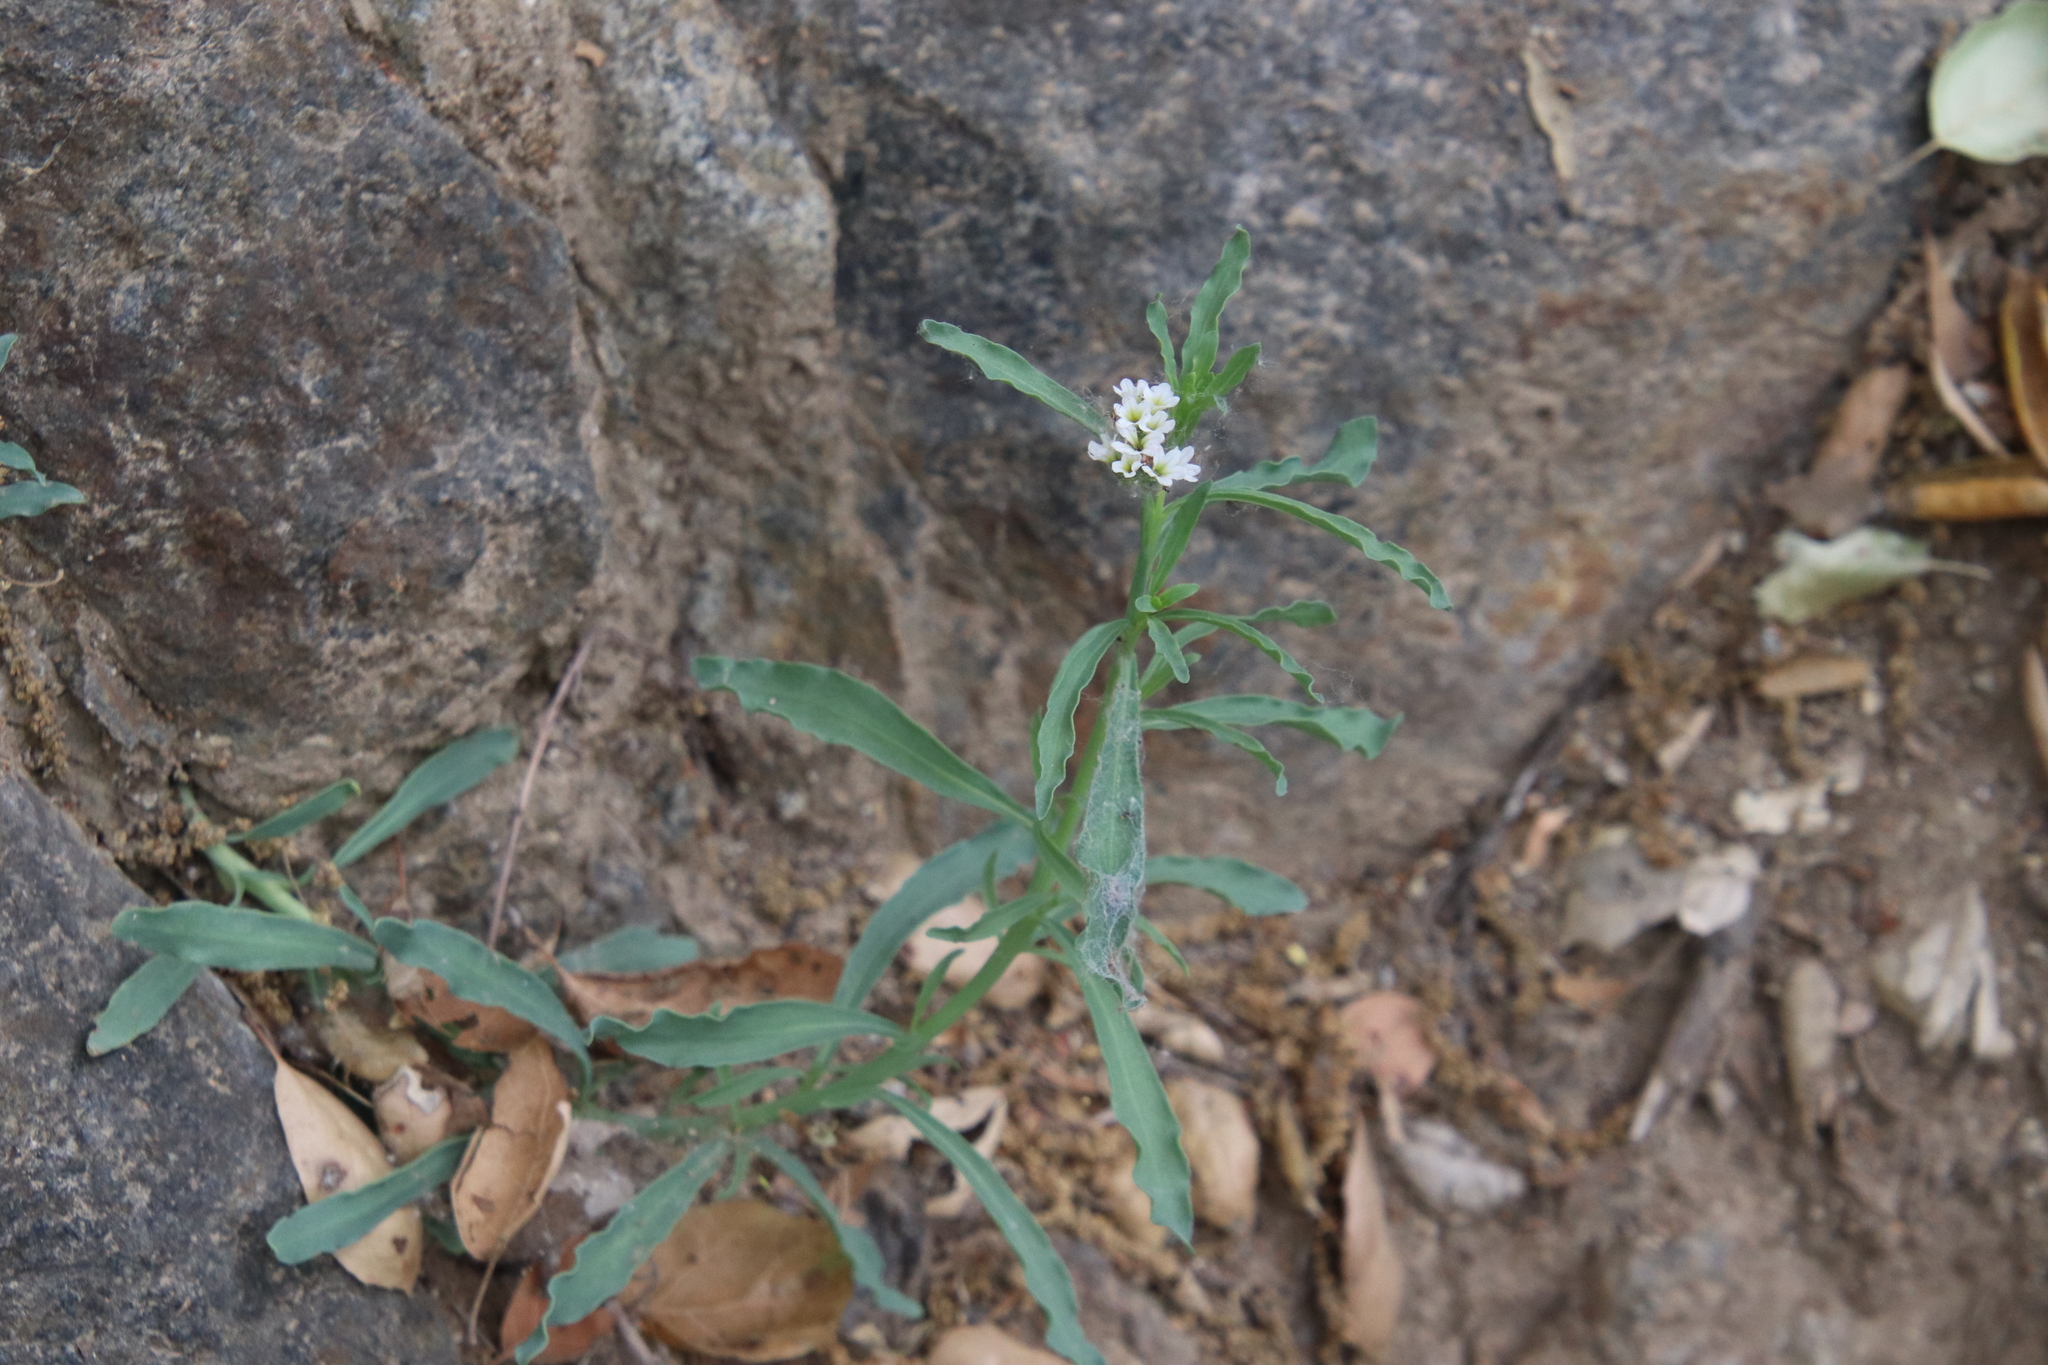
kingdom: Plantae
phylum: Tracheophyta
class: Magnoliopsida
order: Boraginales
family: Heliotropiaceae
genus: Heliotropium
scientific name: Heliotropium curassavicum
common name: Seaside heliotrope
